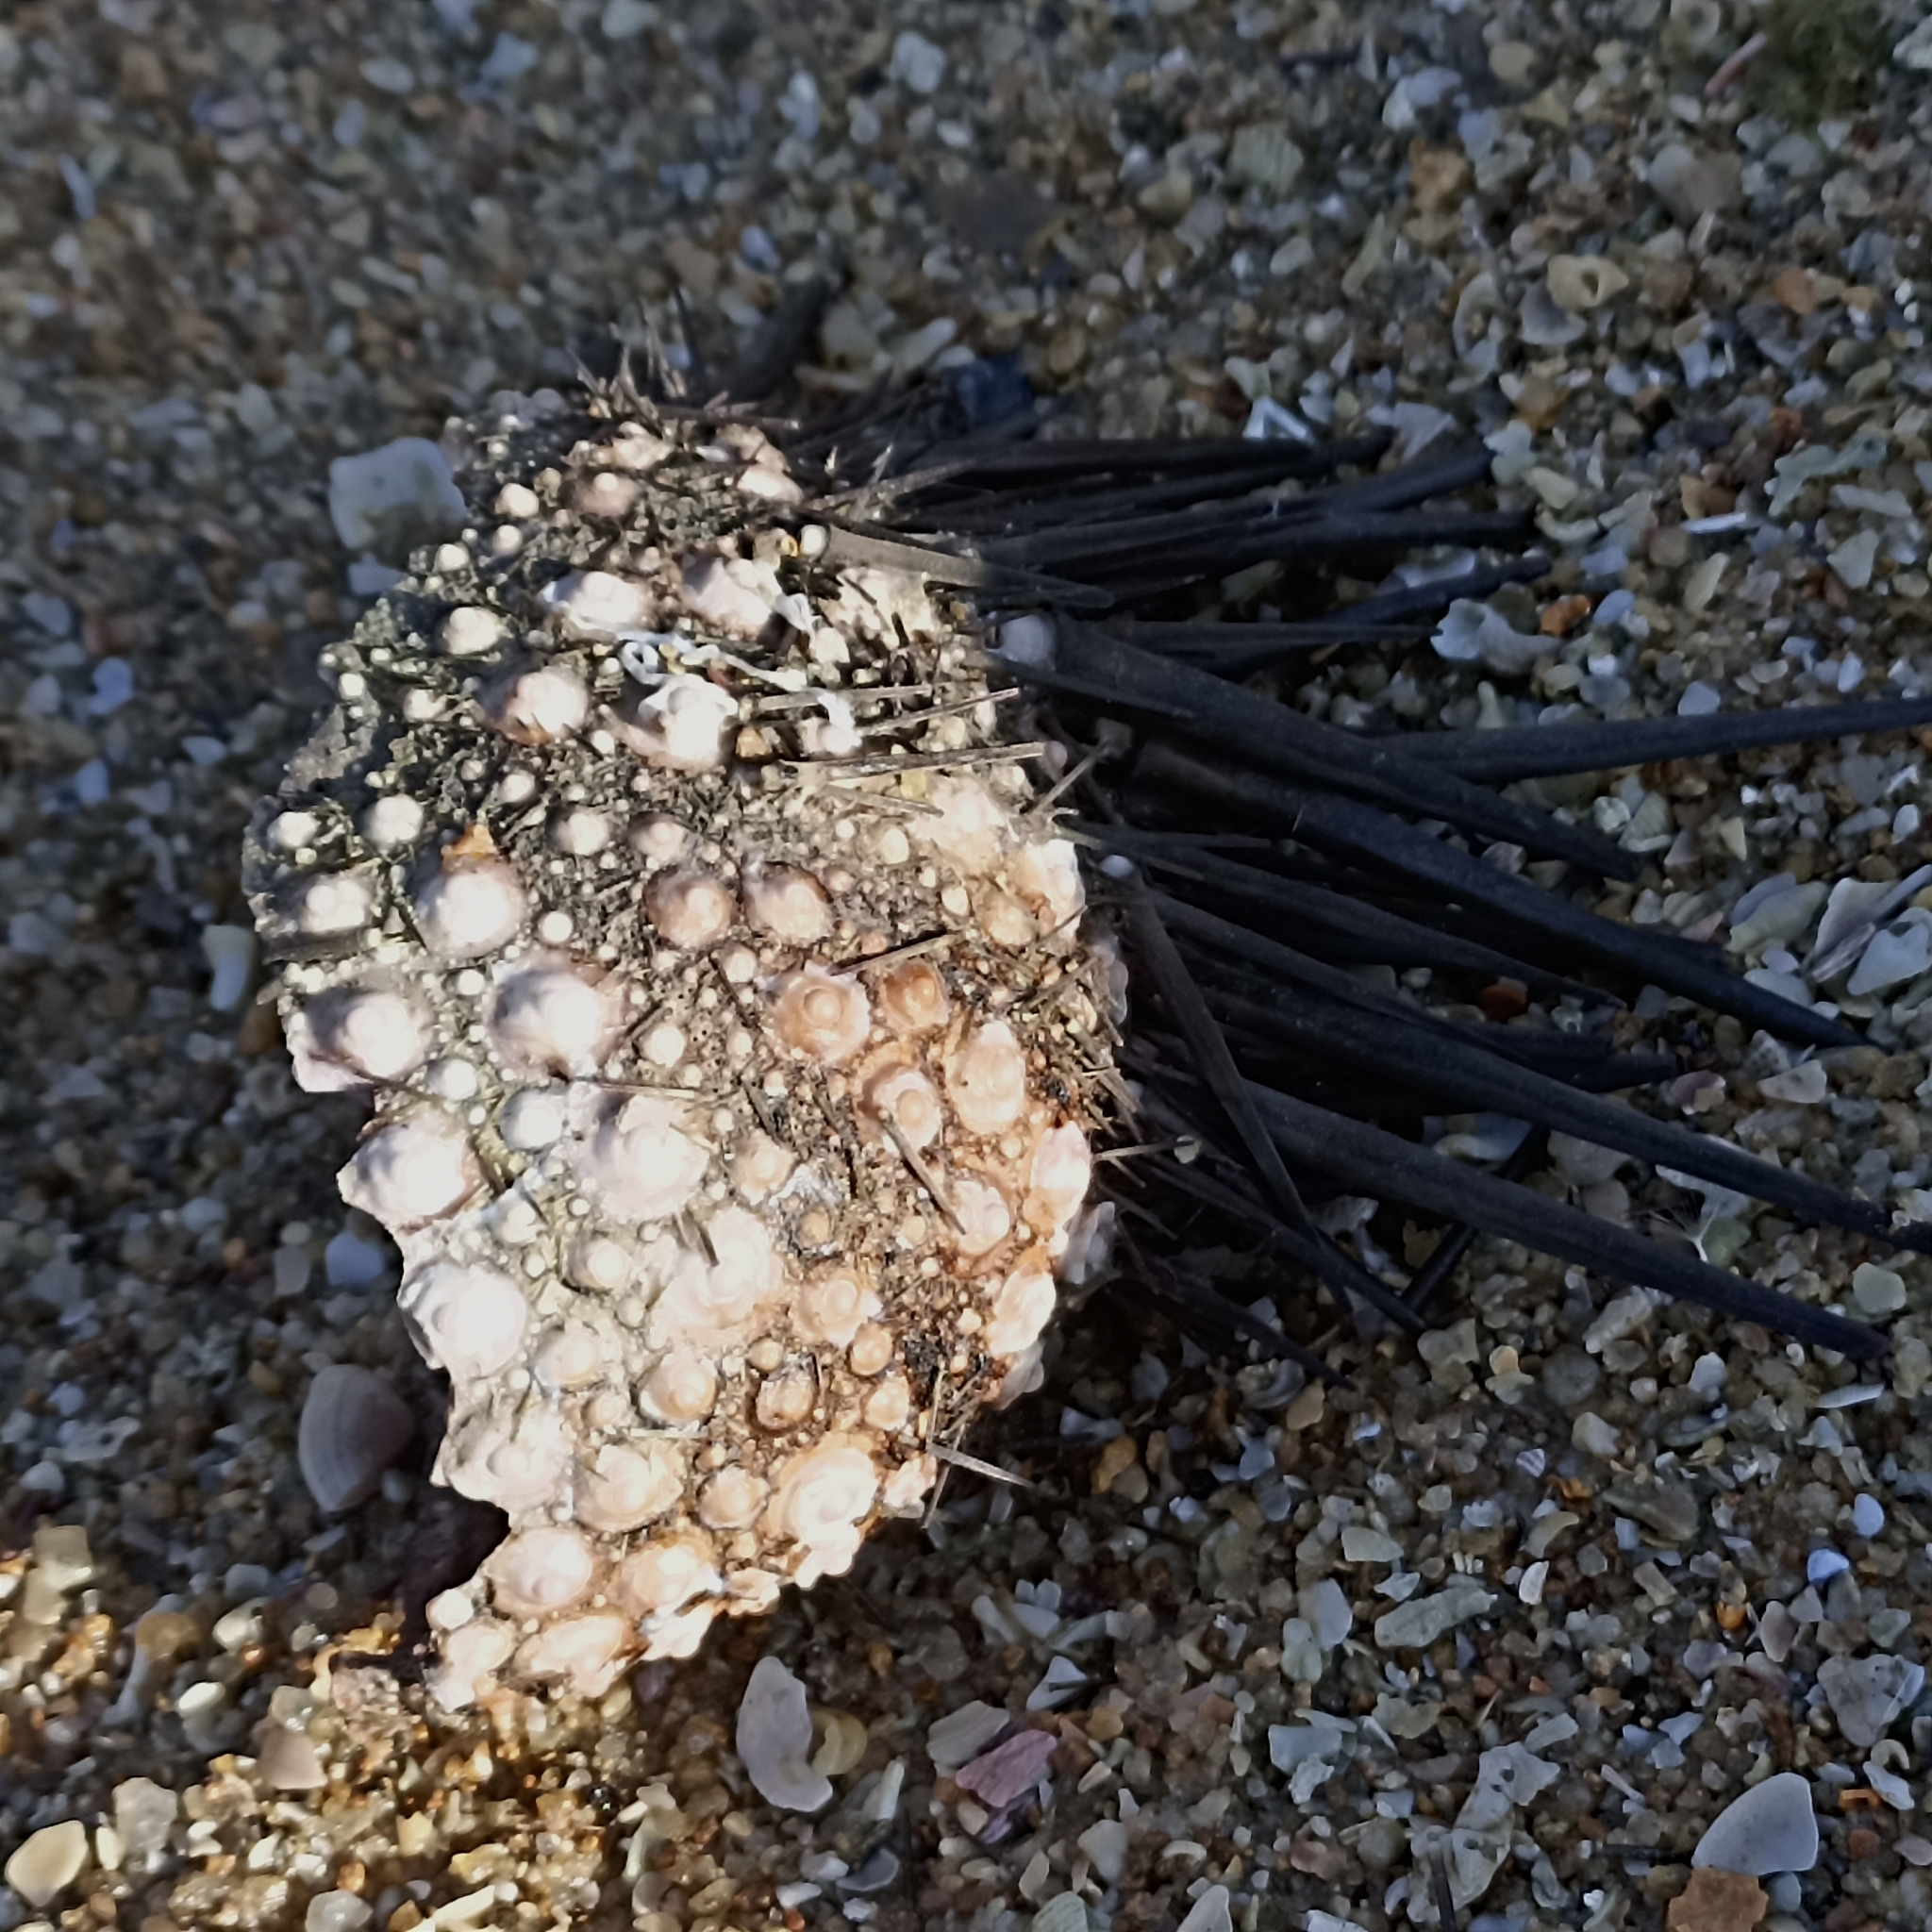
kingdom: Animalia
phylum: Echinodermata
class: Echinoidea
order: Stomopneustoida
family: Stomopneustidae
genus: Stomopneustes
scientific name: Stomopneustes variolaris
